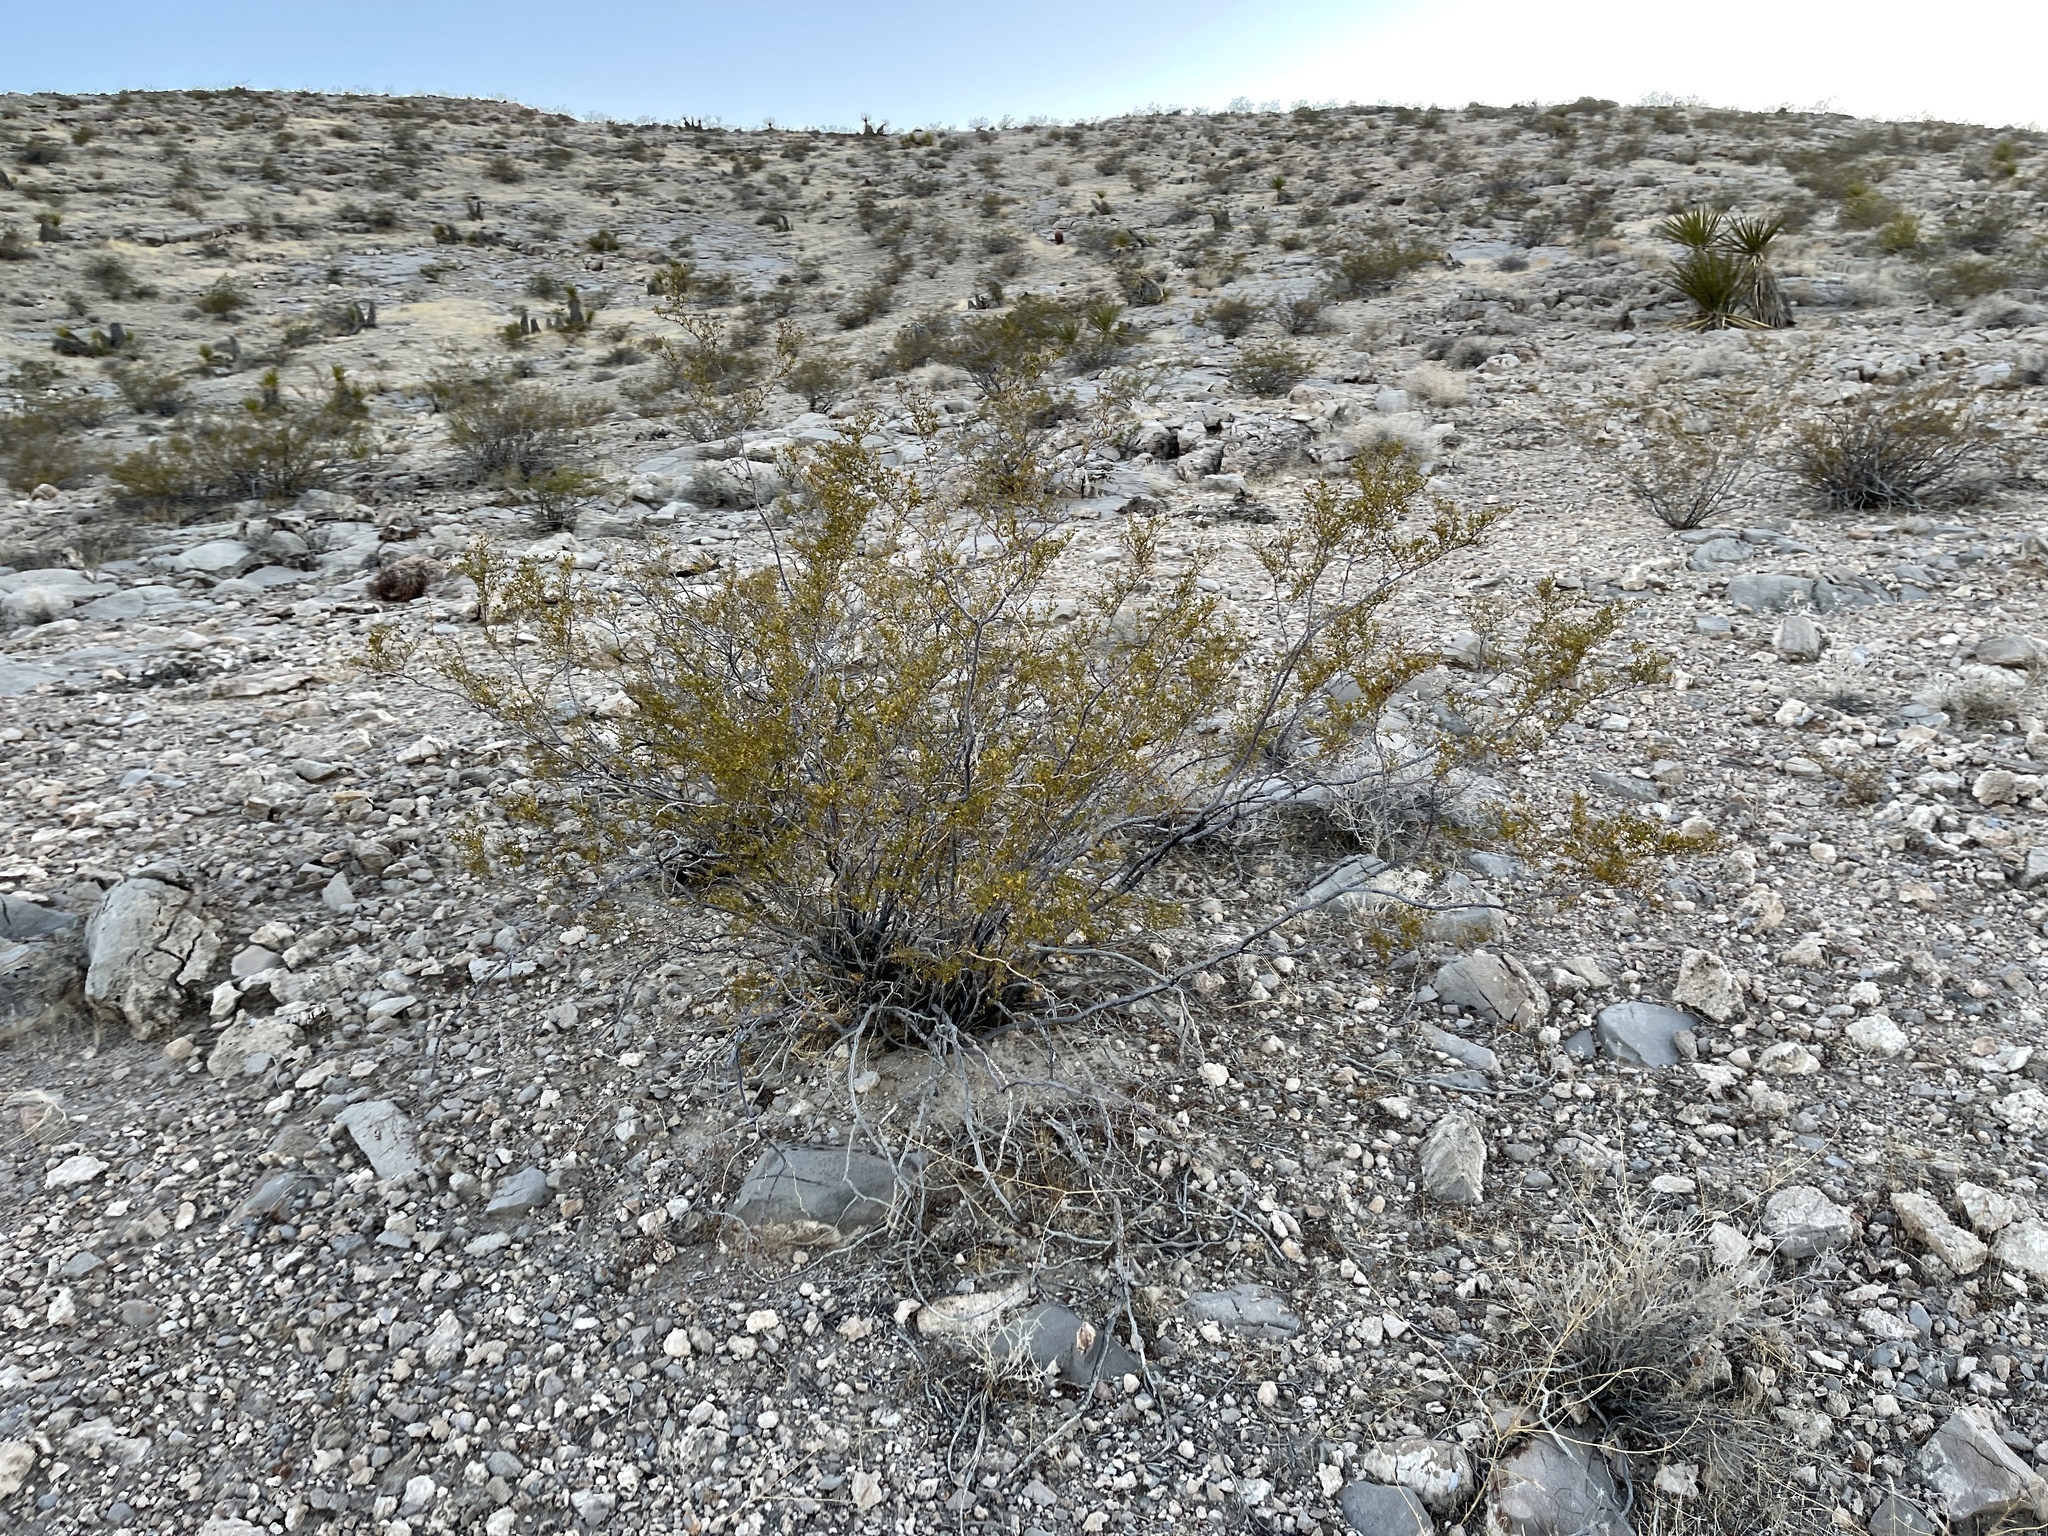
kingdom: Plantae
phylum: Tracheophyta
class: Magnoliopsida
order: Zygophyllales
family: Zygophyllaceae
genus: Larrea
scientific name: Larrea tridentata
